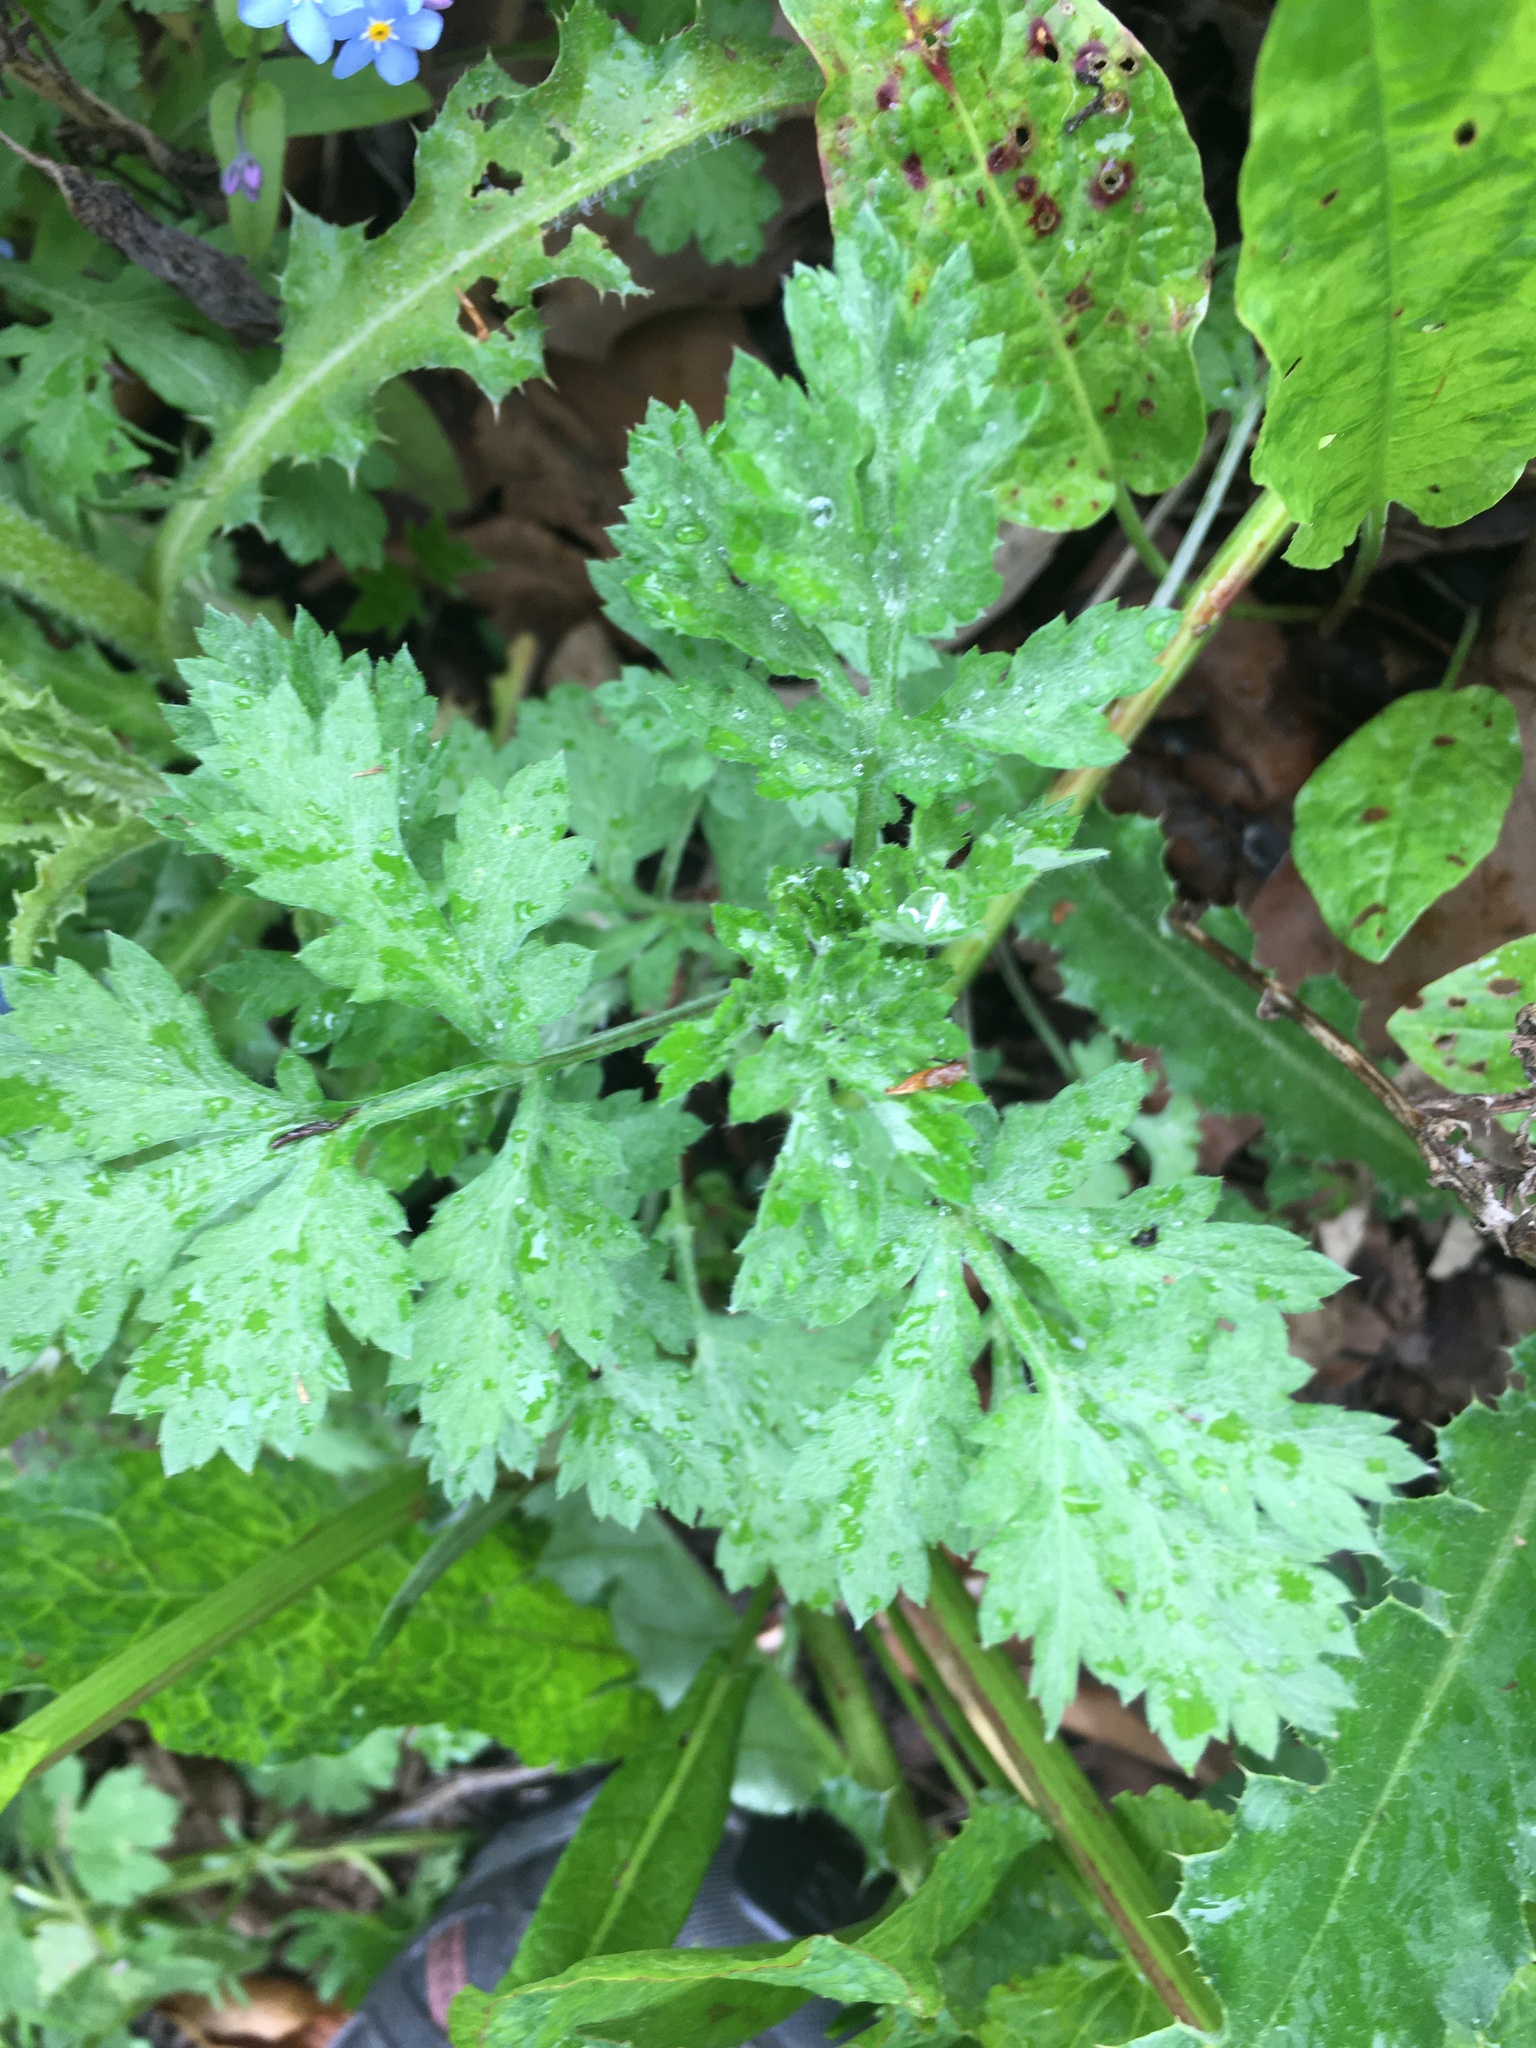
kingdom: Plantae
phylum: Tracheophyta
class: Magnoliopsida
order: Asterales
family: Asteraceae
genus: Artemisia
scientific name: Artemisia vulgaris
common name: Mugwort
